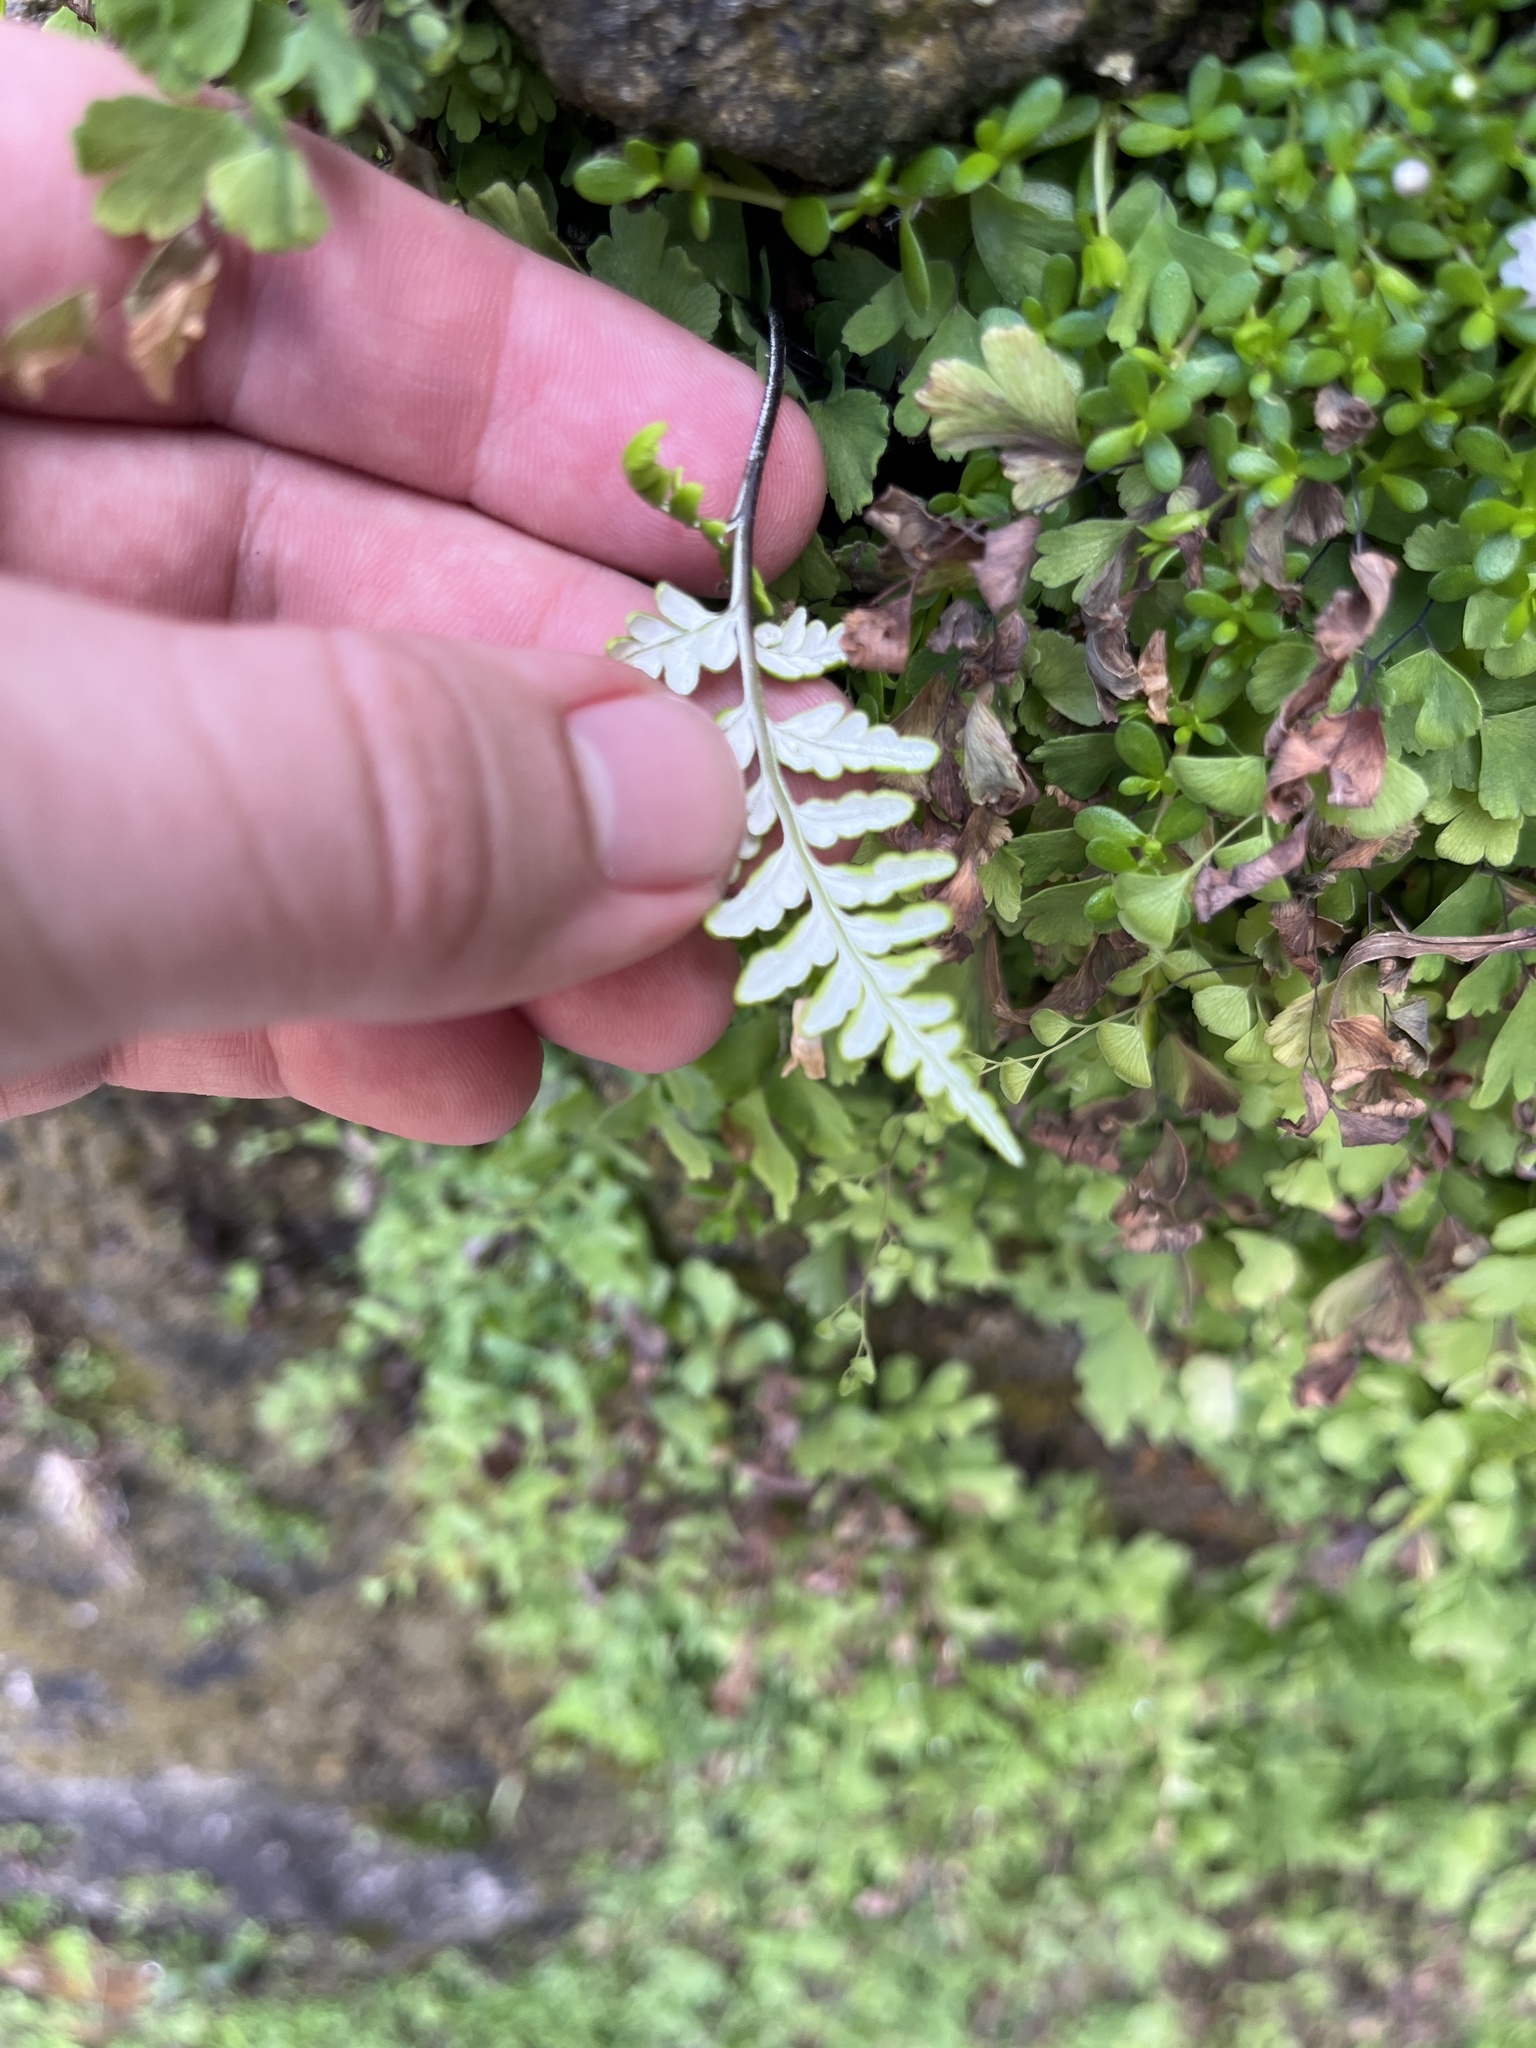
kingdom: Plantae
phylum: Tracheophyta
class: Polypodiopsida
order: Polypodiales
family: Pteridaceae
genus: Pityrogramma
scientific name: Pityrogramma chrysophylla
